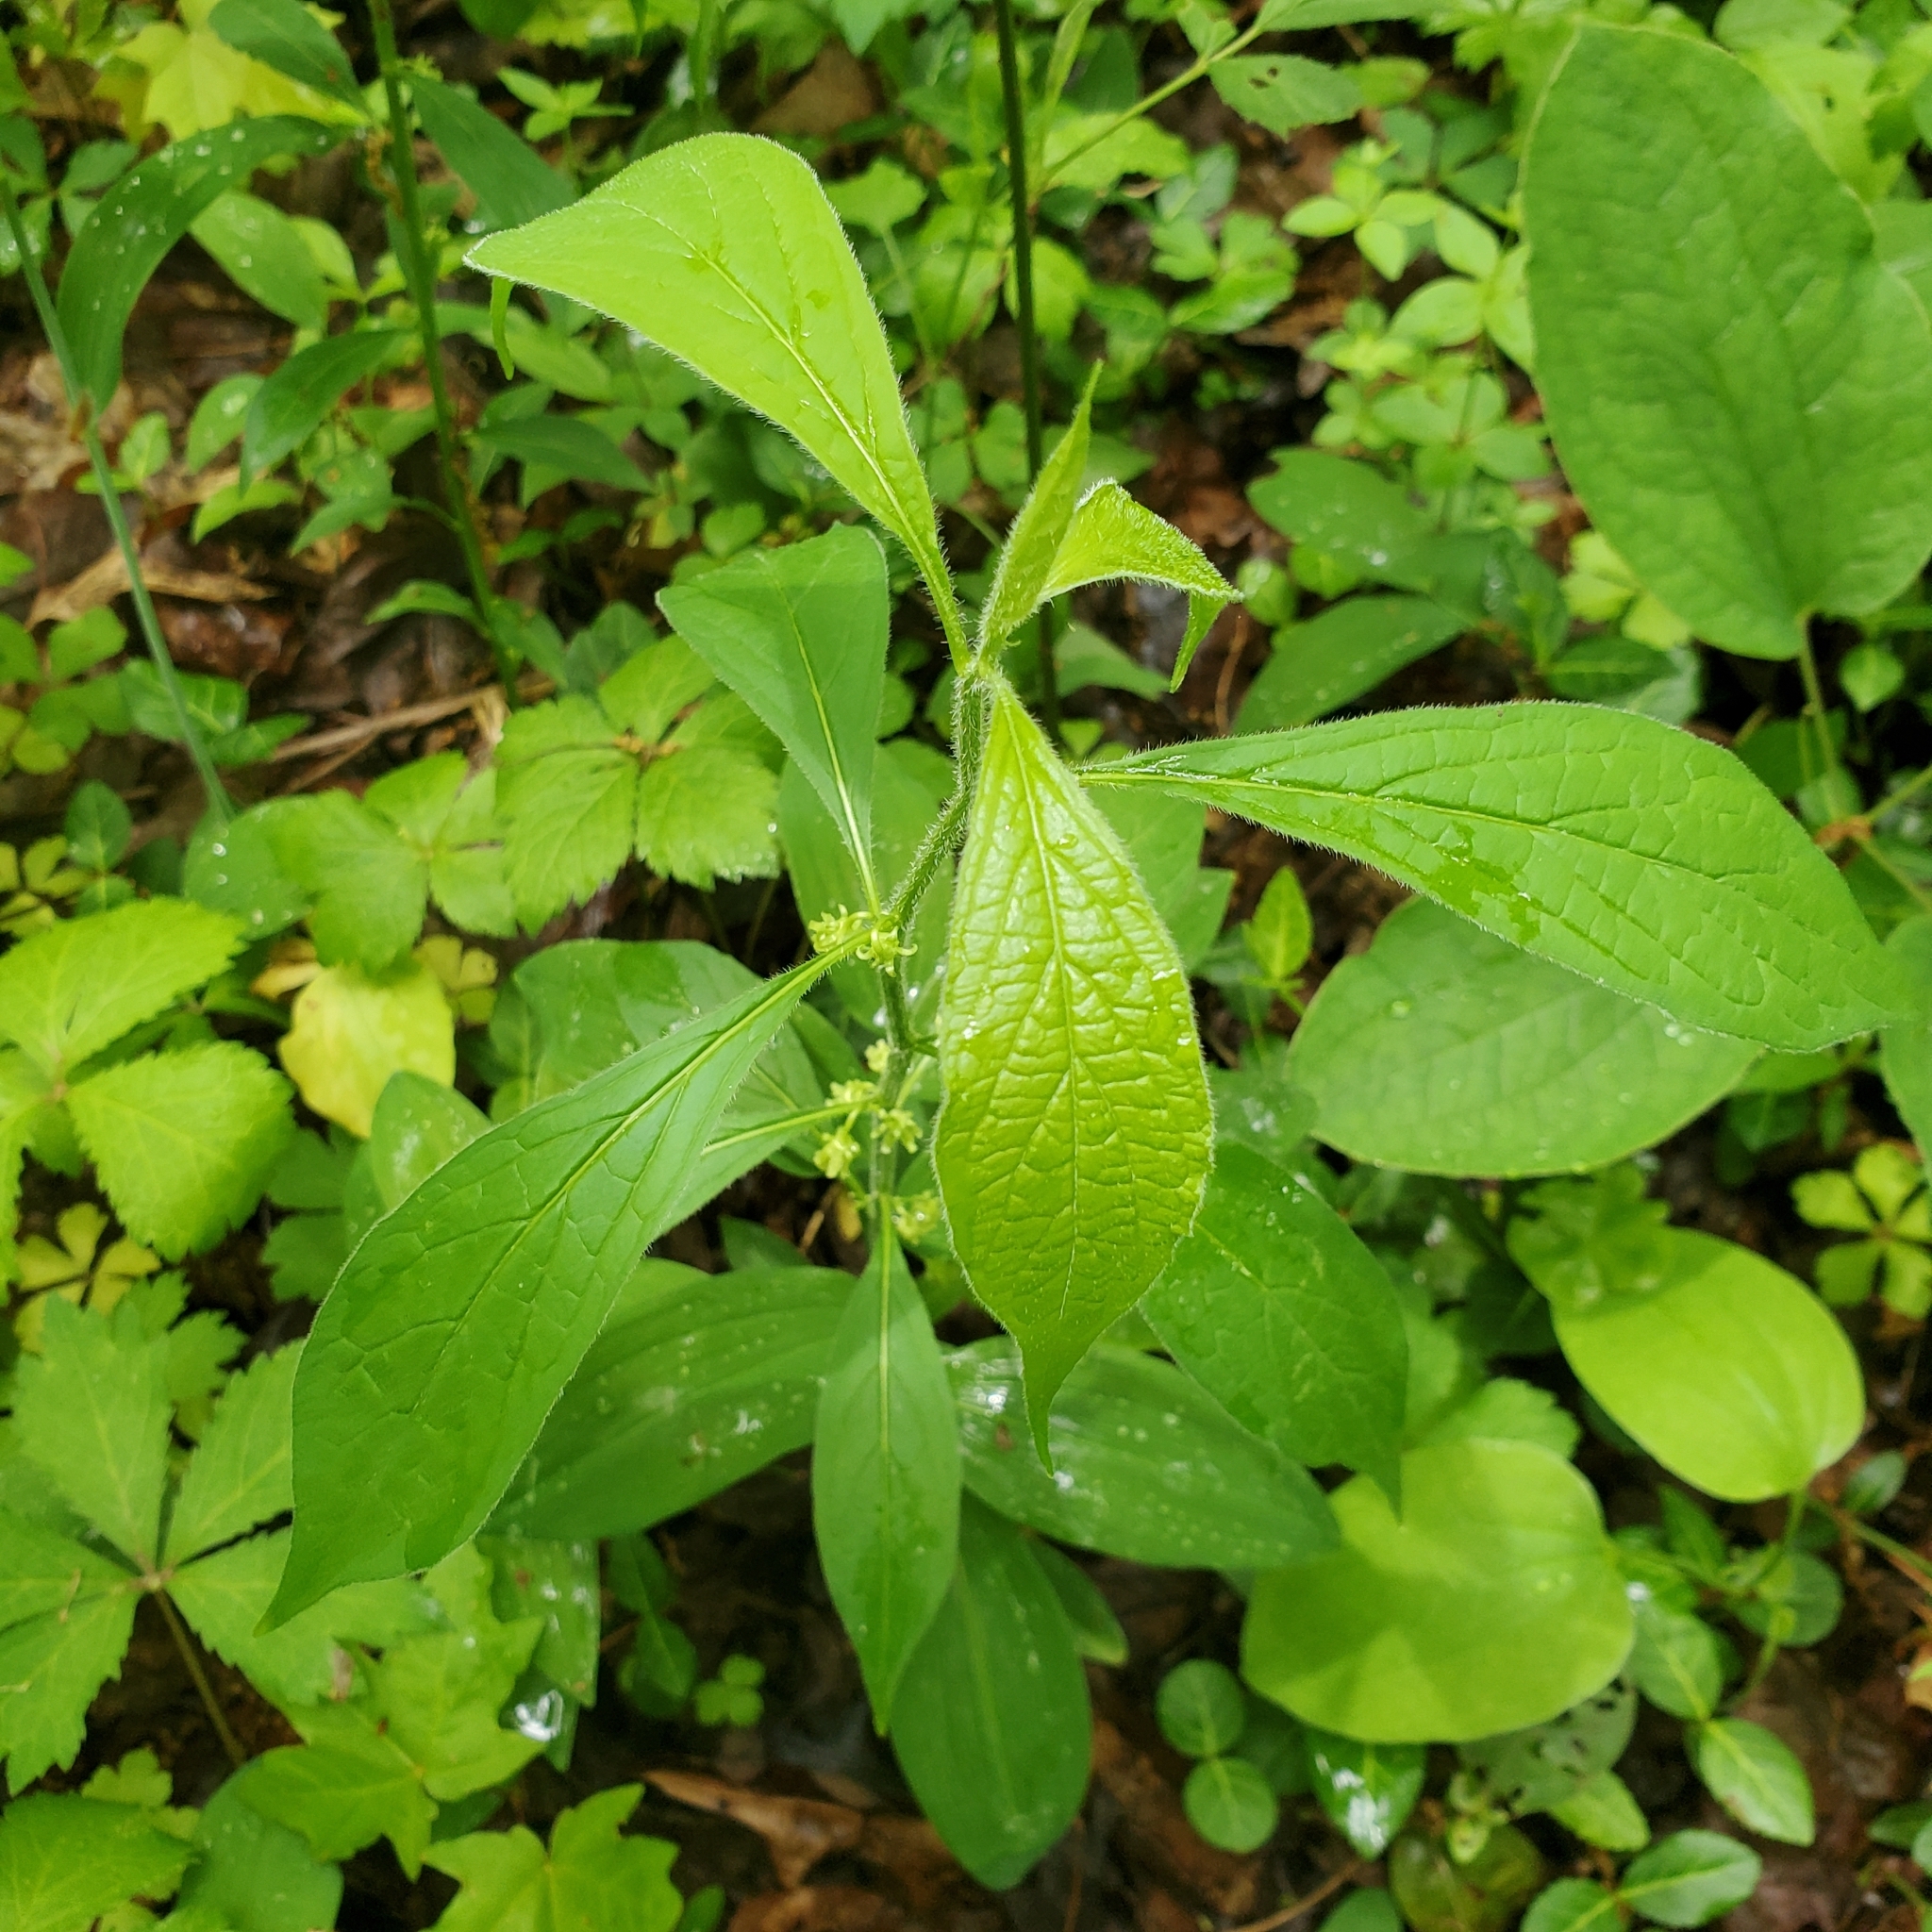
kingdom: Plantae
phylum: Tracheophyta
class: Magnoliopsida
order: Malpighiales
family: Violaceae
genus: Cubelium
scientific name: Cubelium concolor
